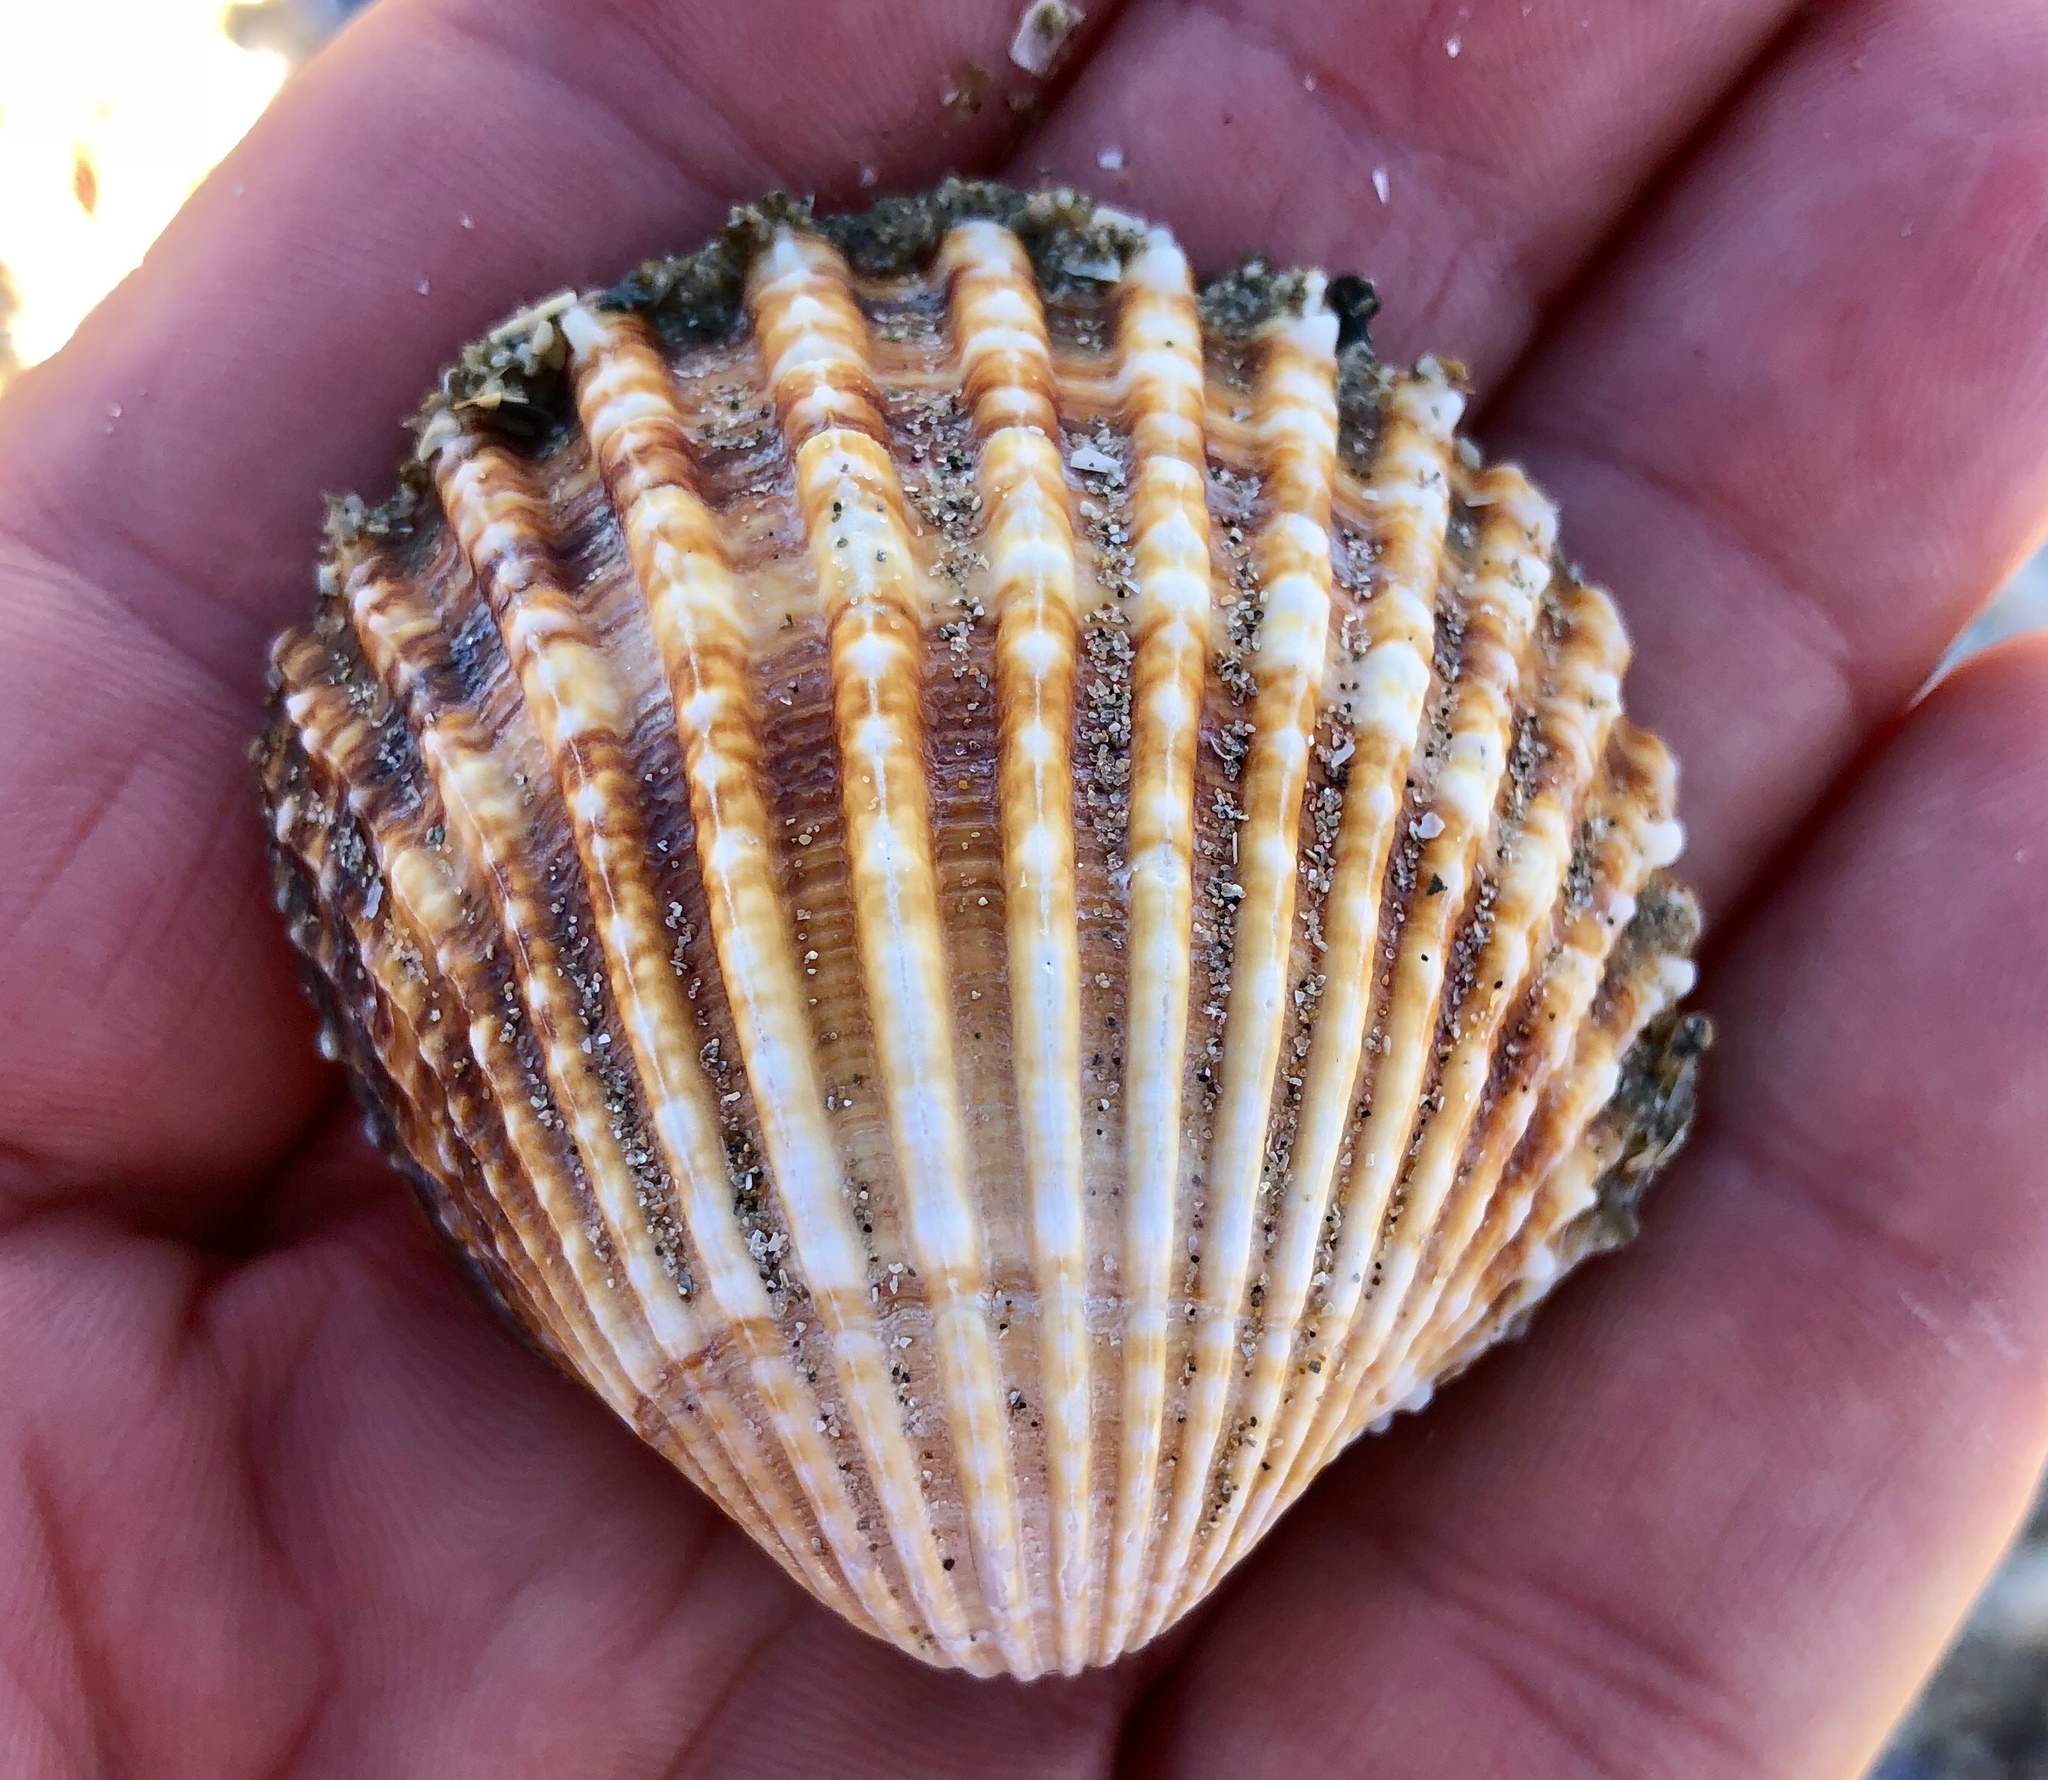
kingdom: Animalia
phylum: Mollusca
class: Bivalvia
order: Cardiida
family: Cardiidae
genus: Acanthocardia
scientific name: Acanthocardia tuberculata
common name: Rough cockle
